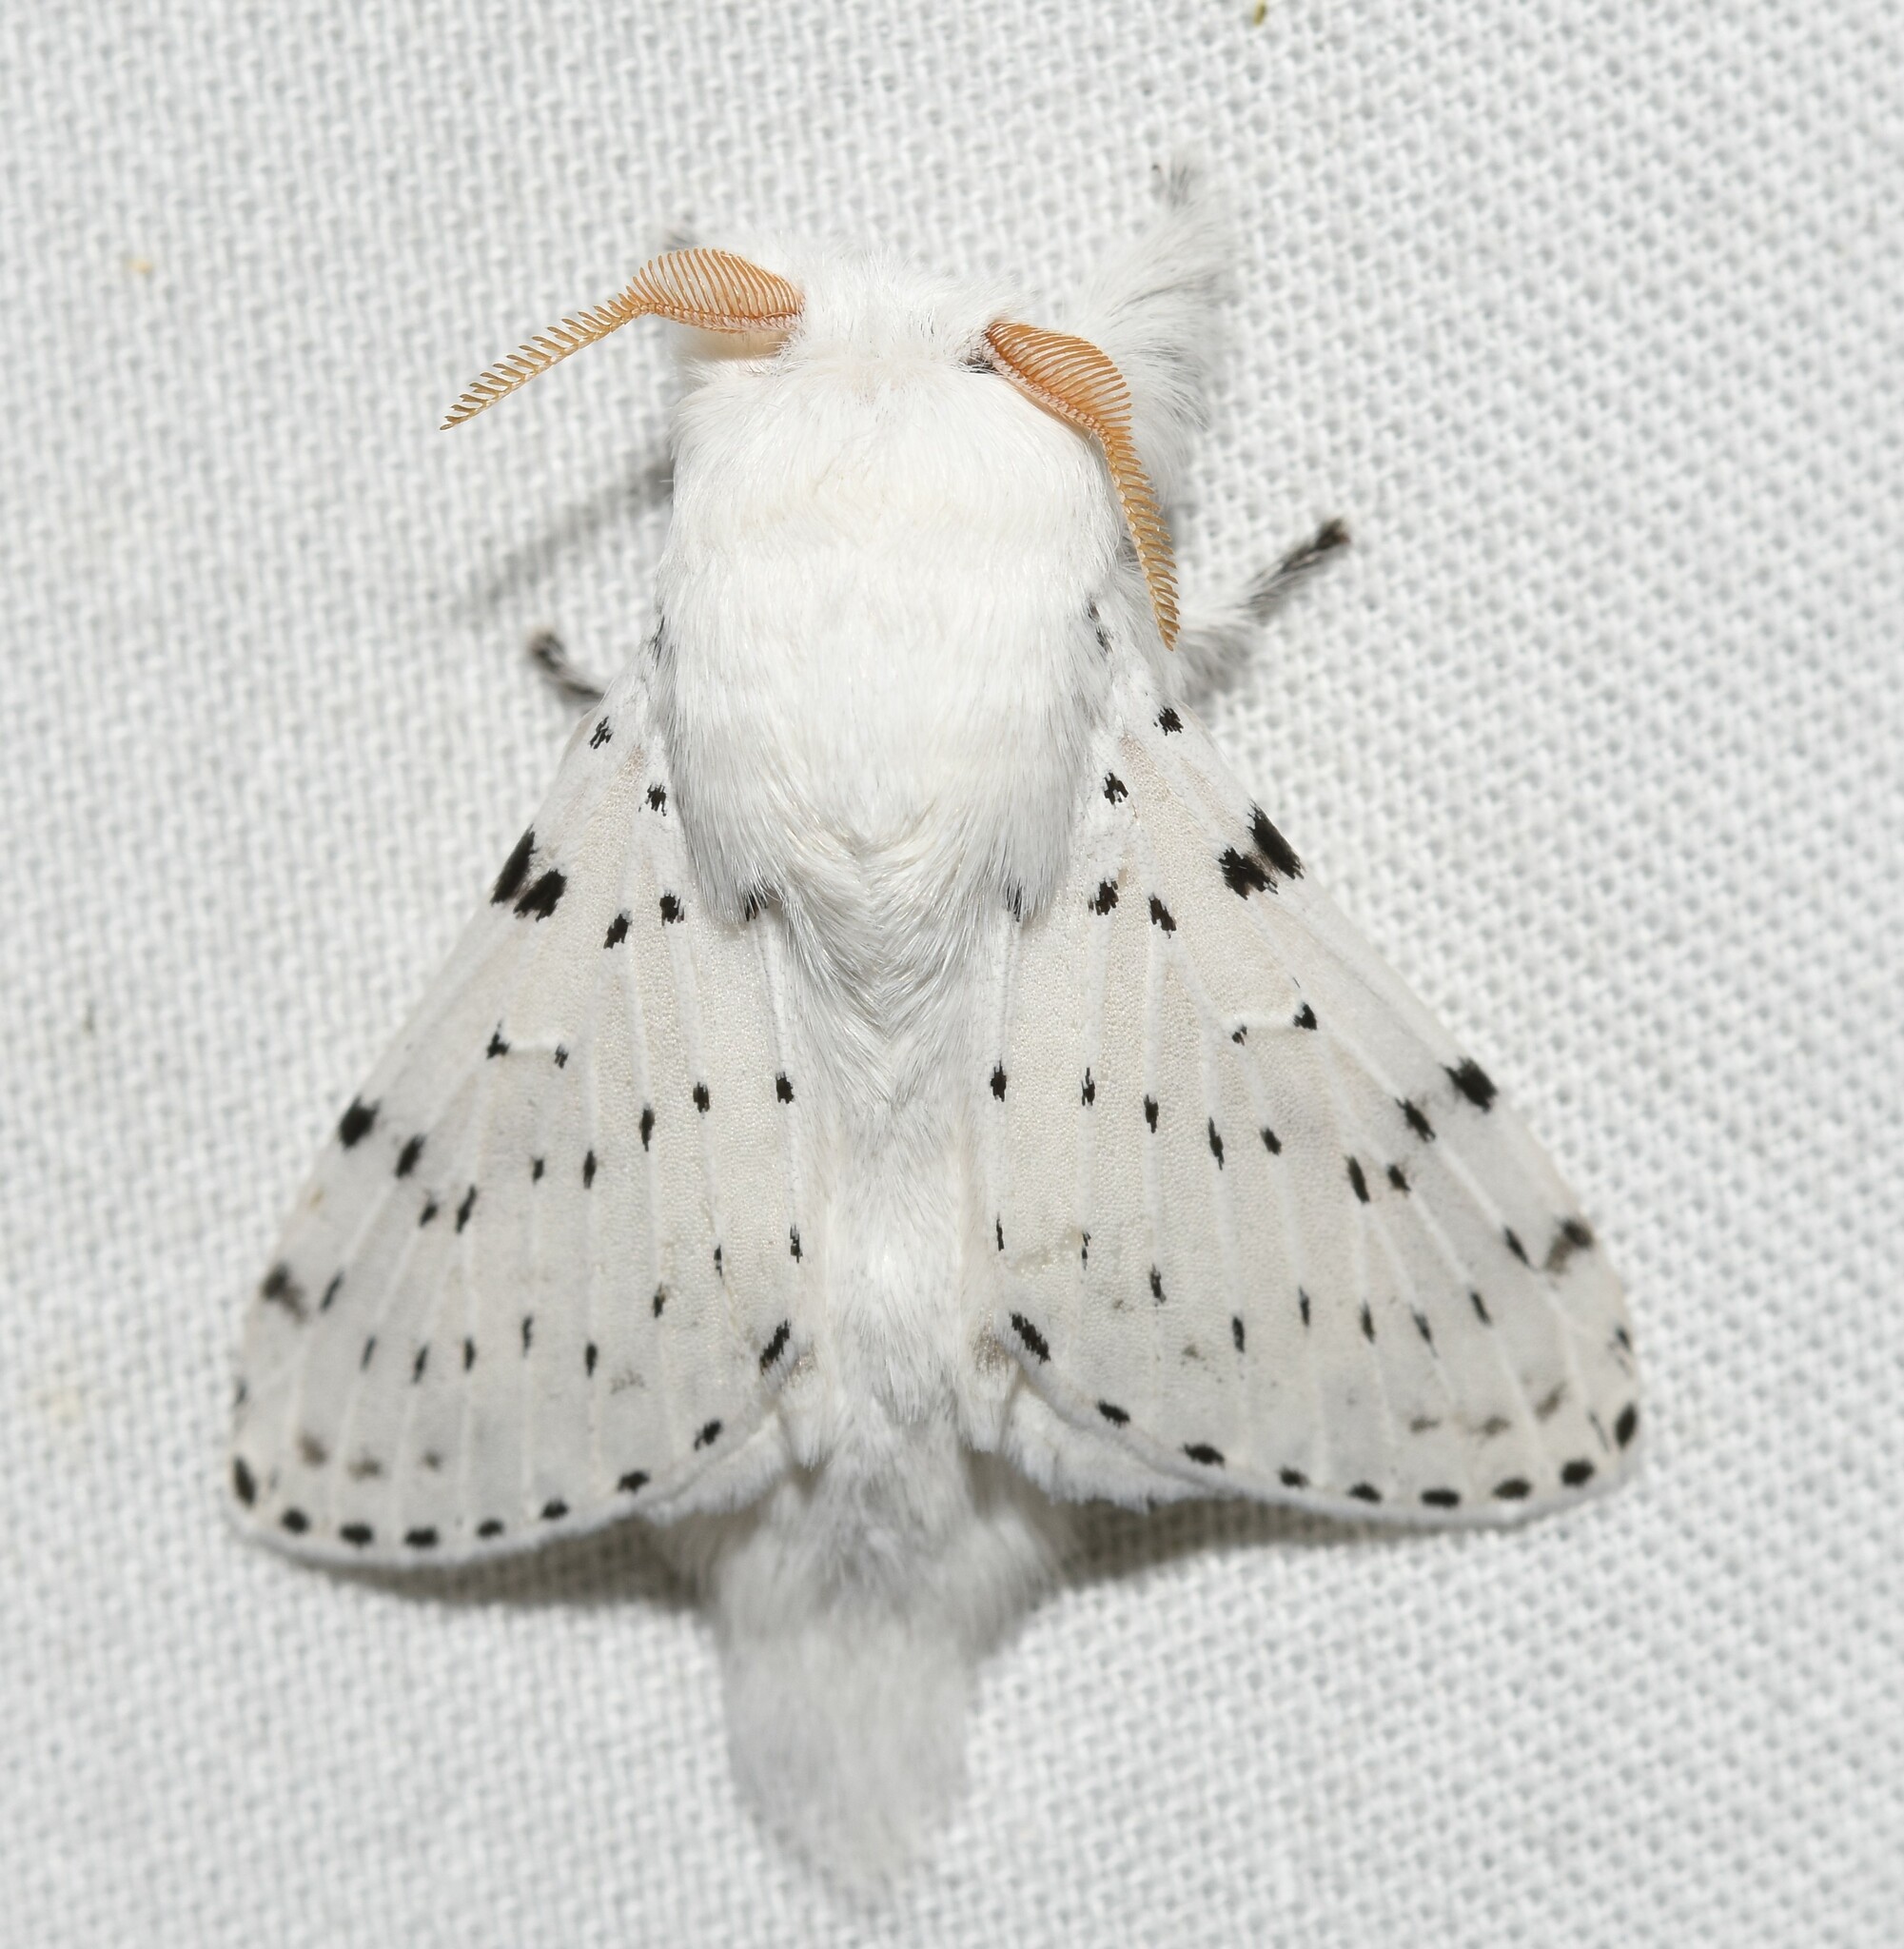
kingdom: Animalia
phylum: Arthropoda
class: Insecta
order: Lepidoptera
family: Lasiocampidae
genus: Artace
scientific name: Artace cribrarius
